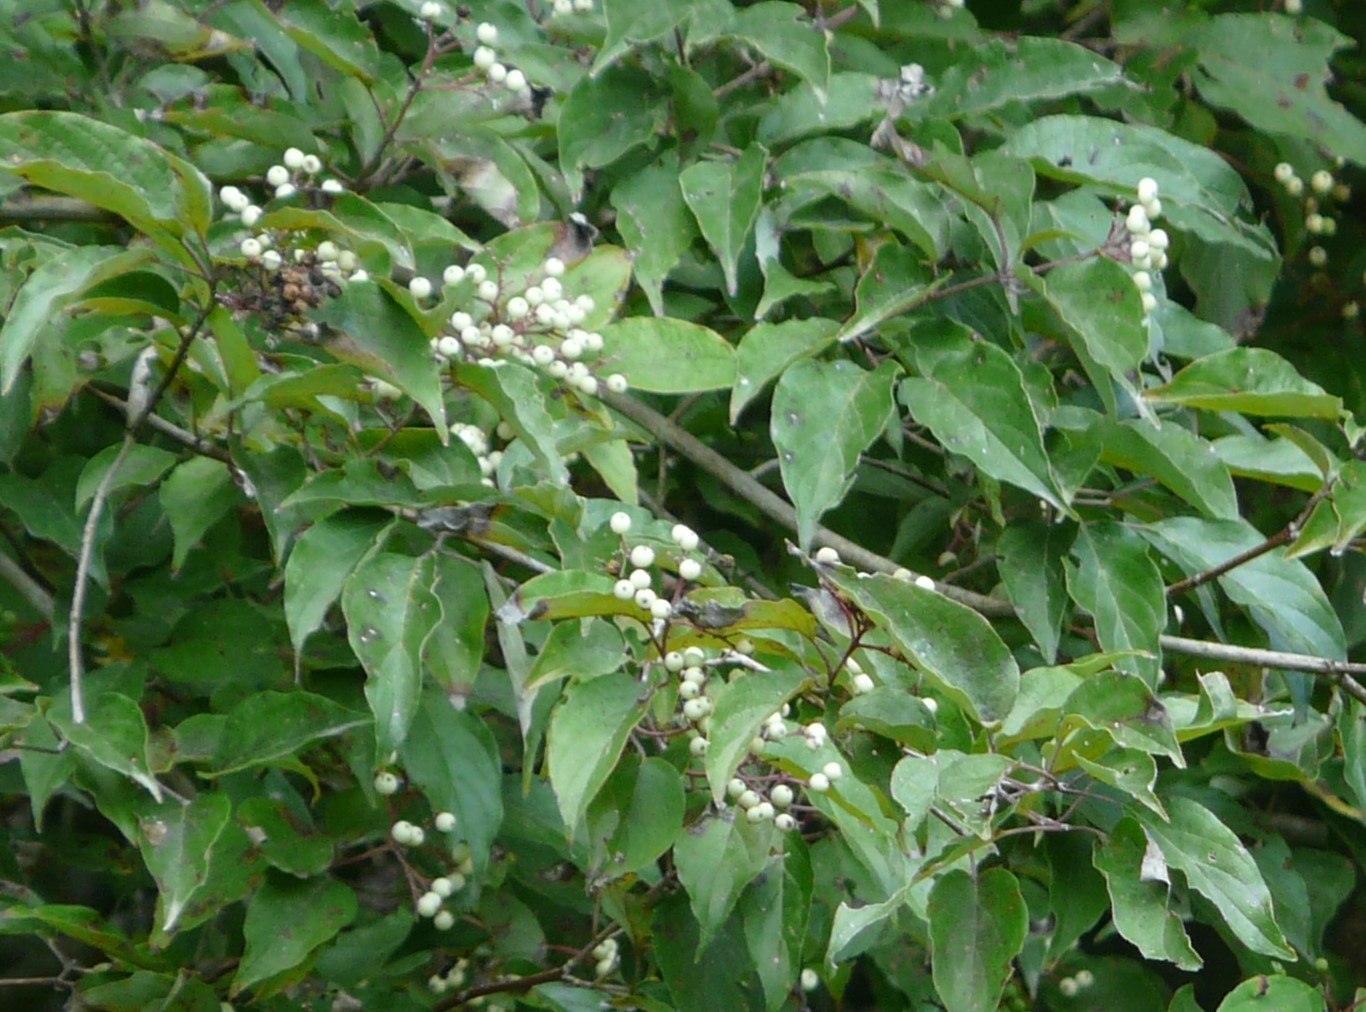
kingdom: Plantae
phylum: Tracheophyta
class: Magnoliopsida
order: Cornales
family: Cornaceae
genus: Cornus
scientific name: Cornus drummondii
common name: Rough-leaf dogwood
